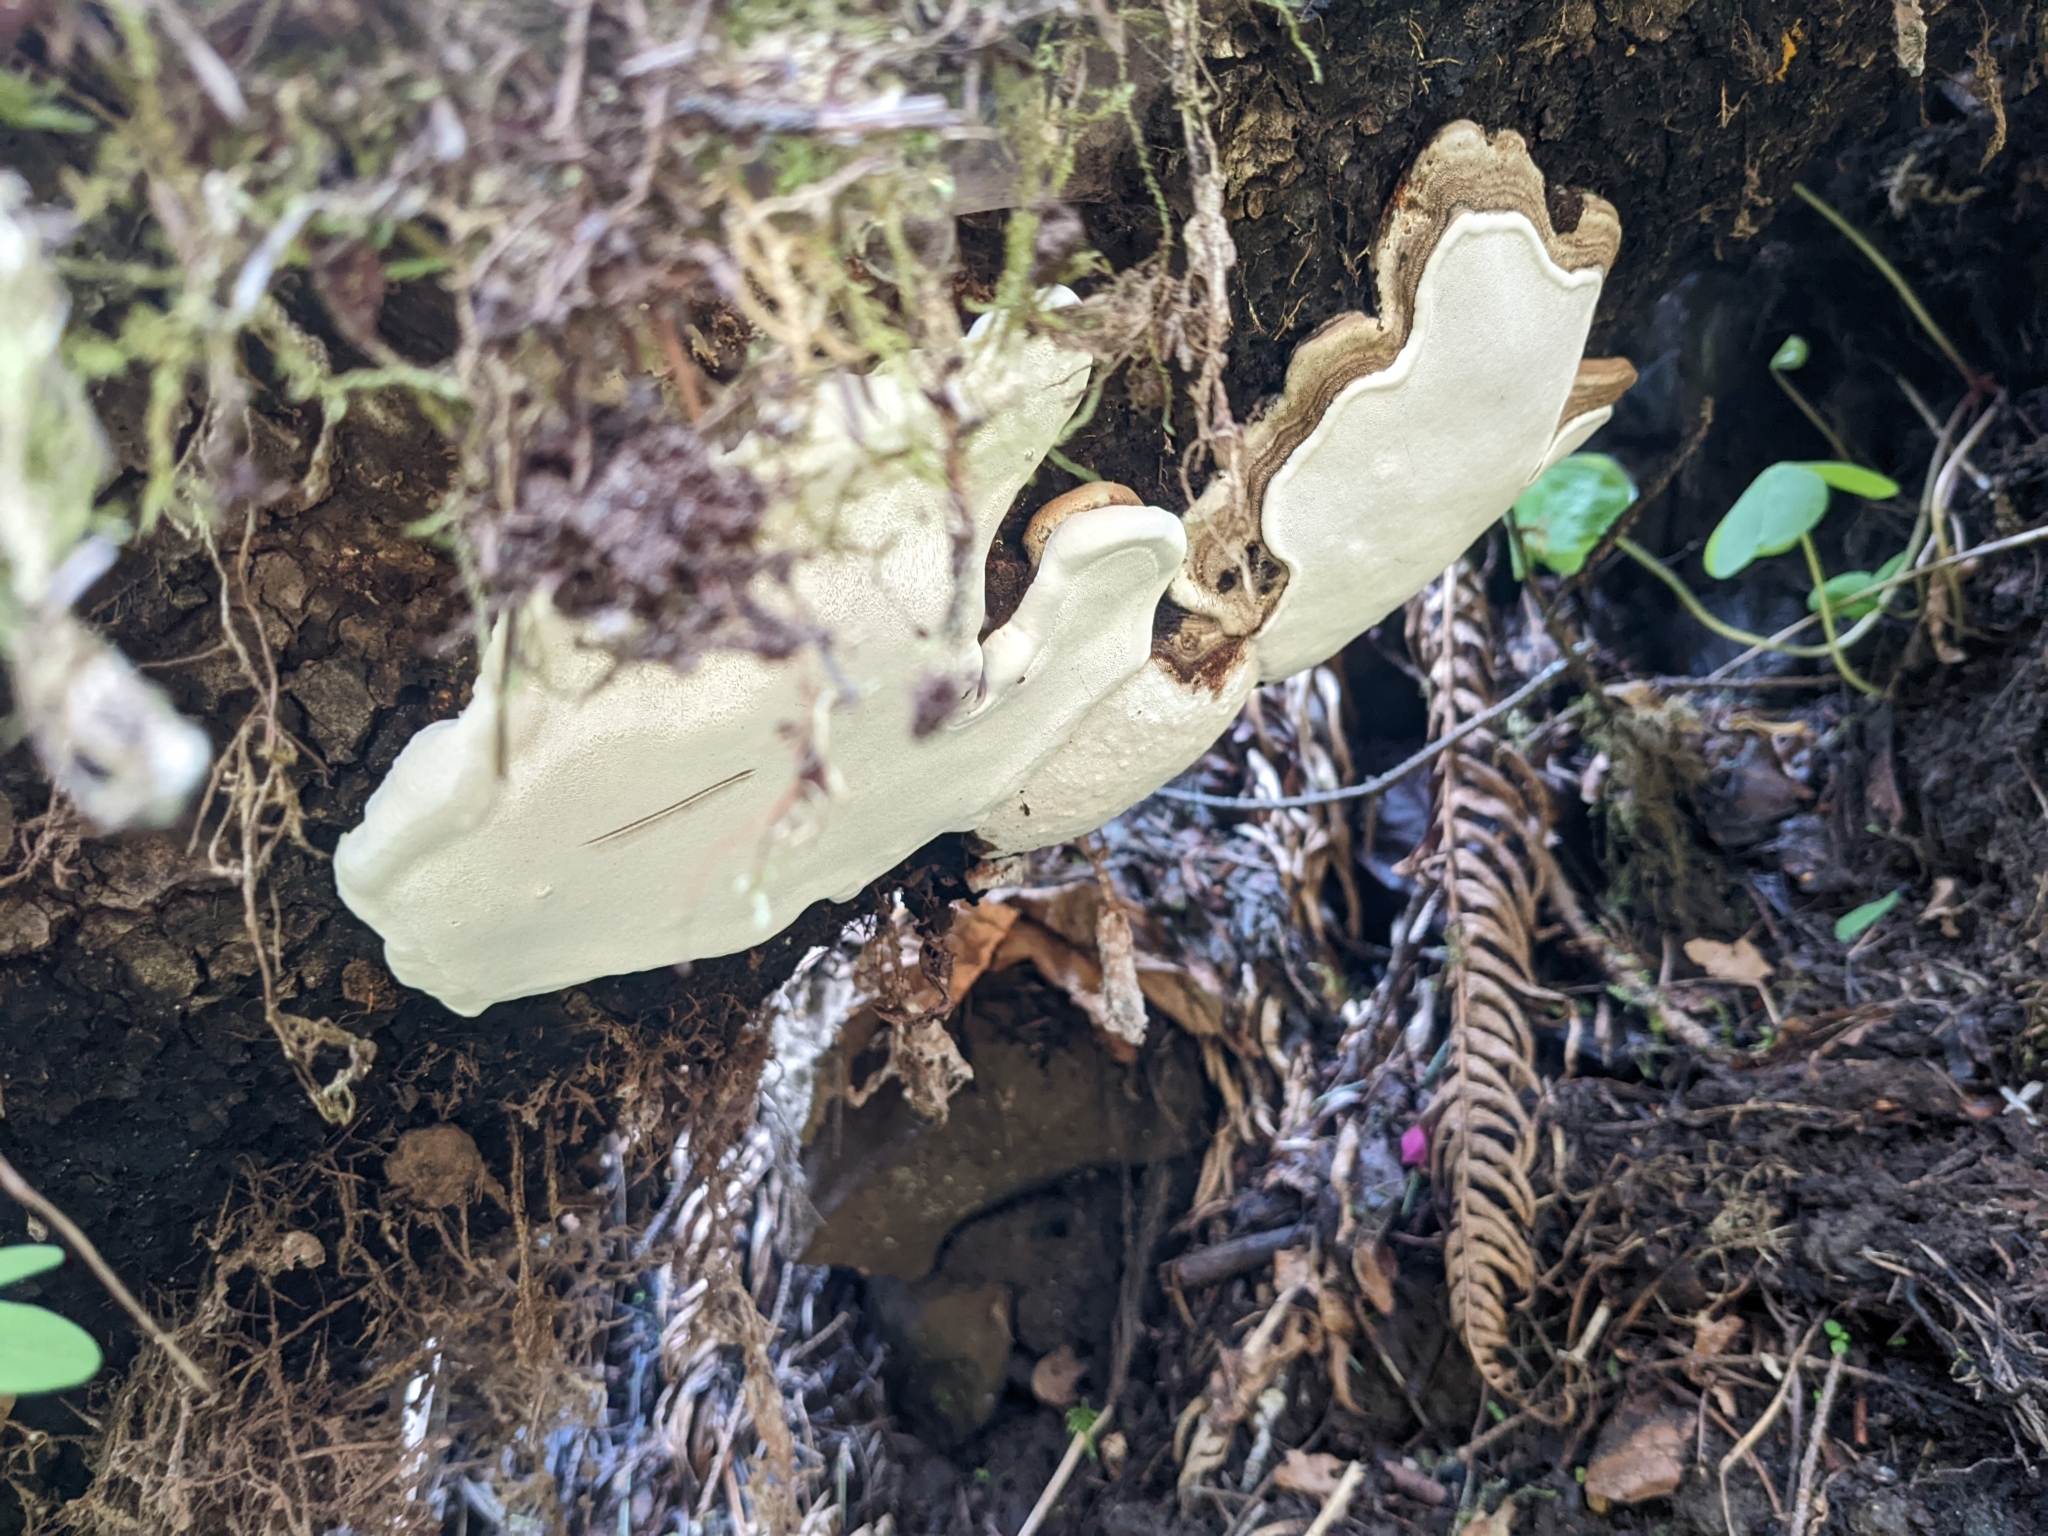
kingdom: Fungi
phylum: Basidiomycota
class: Agaricomycetes
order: Polyporales
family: Polyporaceae
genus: Ganoderma
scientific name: Ganoderma applanatum
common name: Artist's bracket
